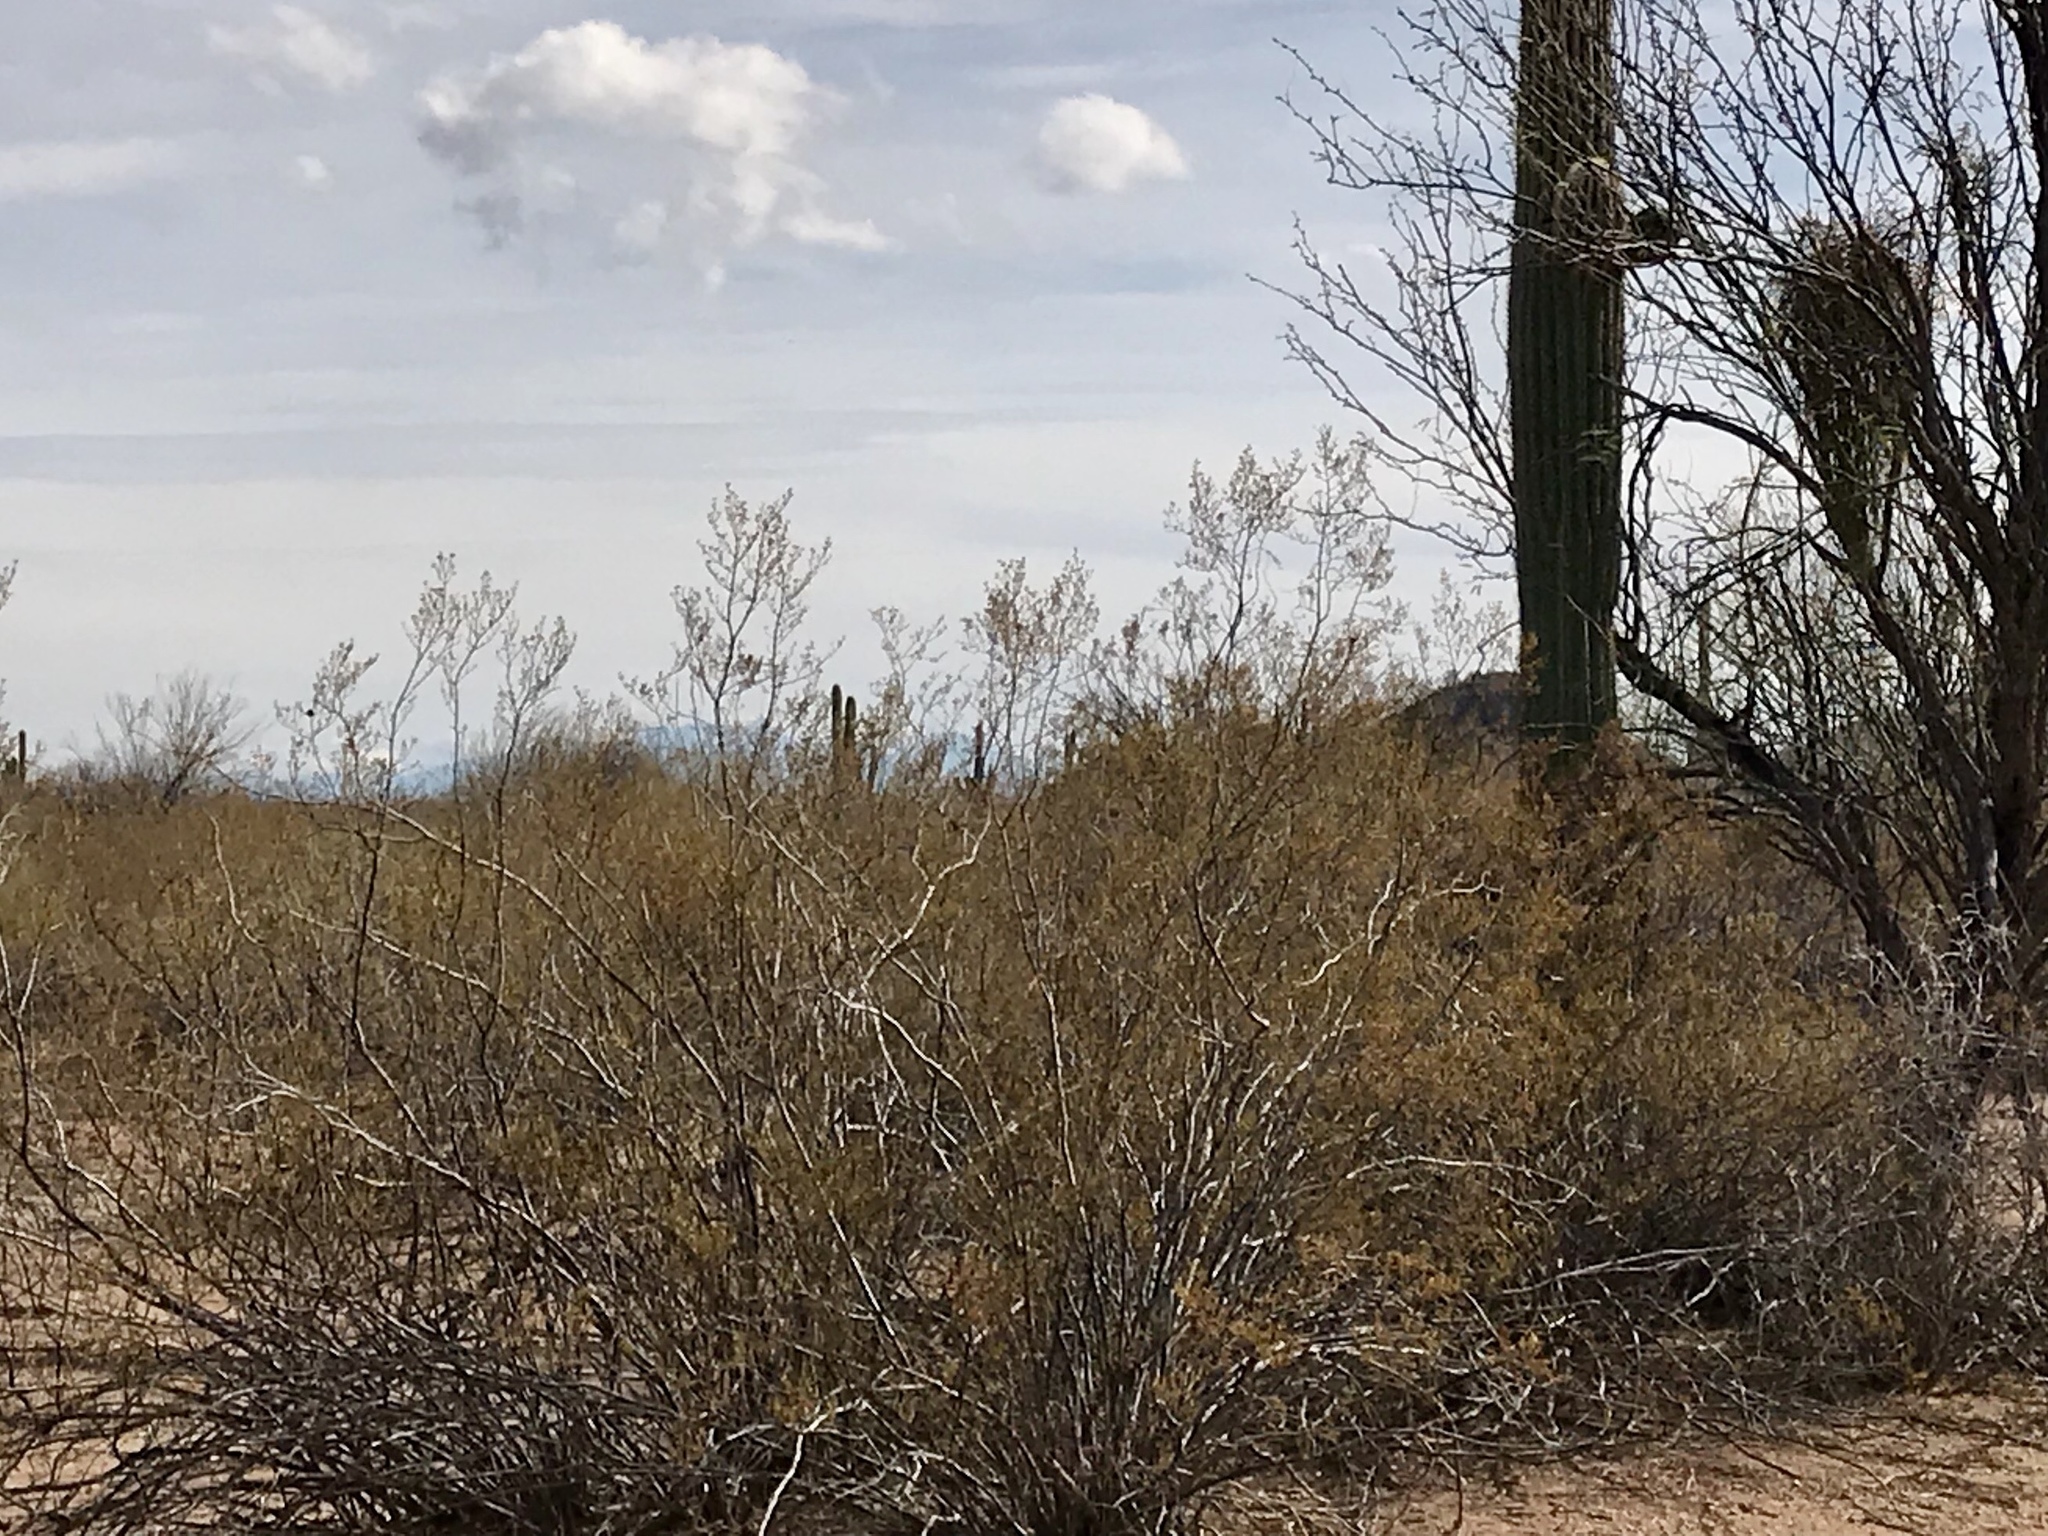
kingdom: Plantae
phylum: Tracheophyta
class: Magnoliopsida
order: Zygophyllales
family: Zygophyllaceae
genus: Larrea
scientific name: Larrea tridentata
